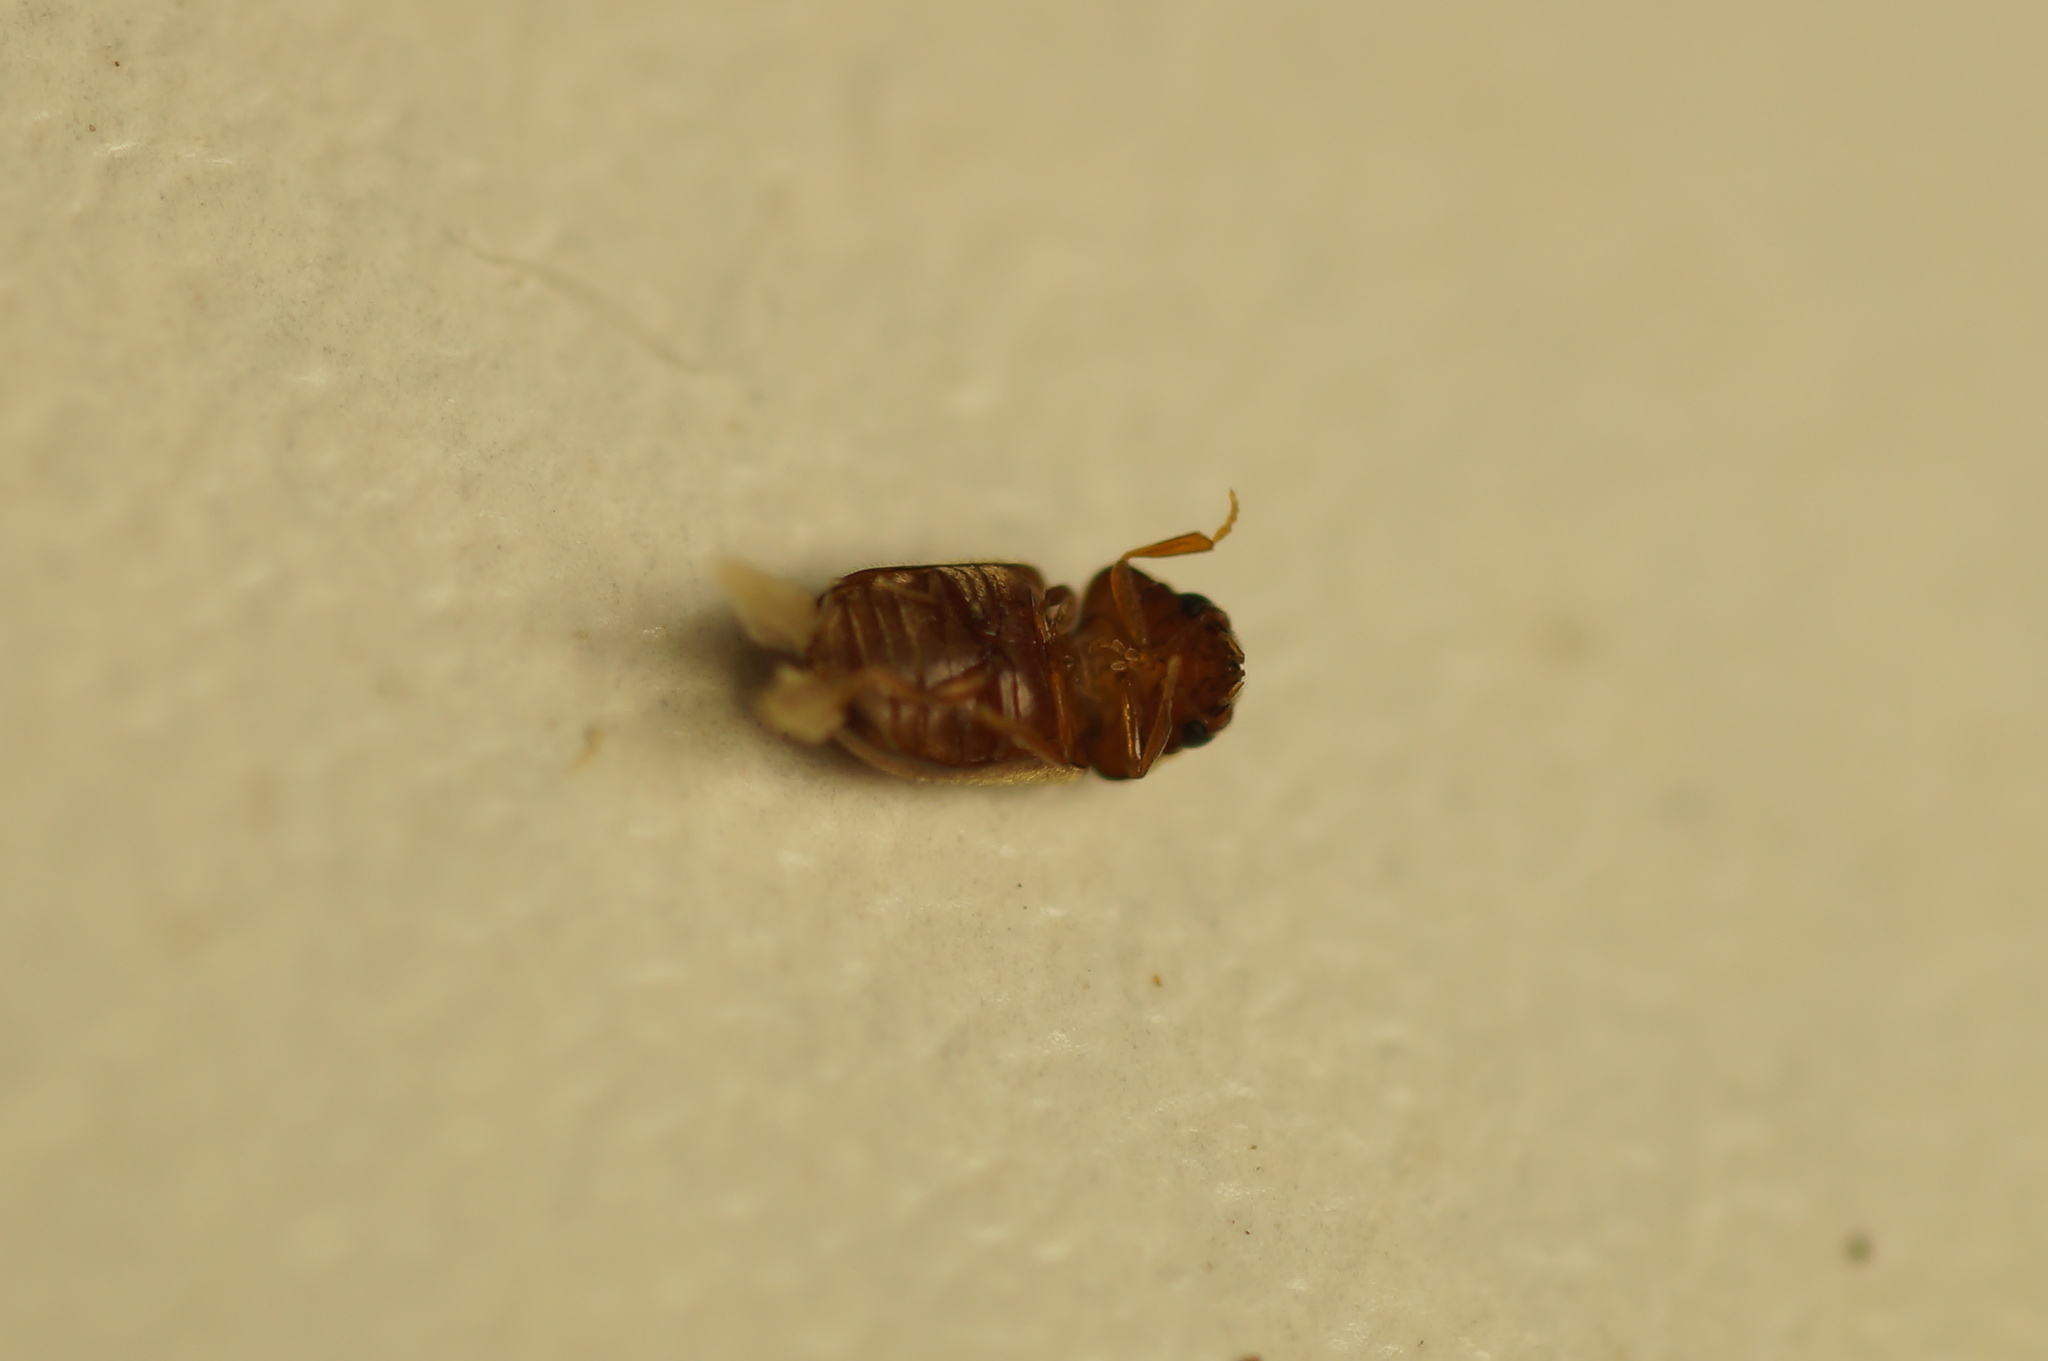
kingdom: Animalia
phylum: Arthropoda
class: Insecta
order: Coleoptera
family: Anobiidae
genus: Lasioderma
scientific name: Lasioderma serricorne
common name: Cigarette beetle
